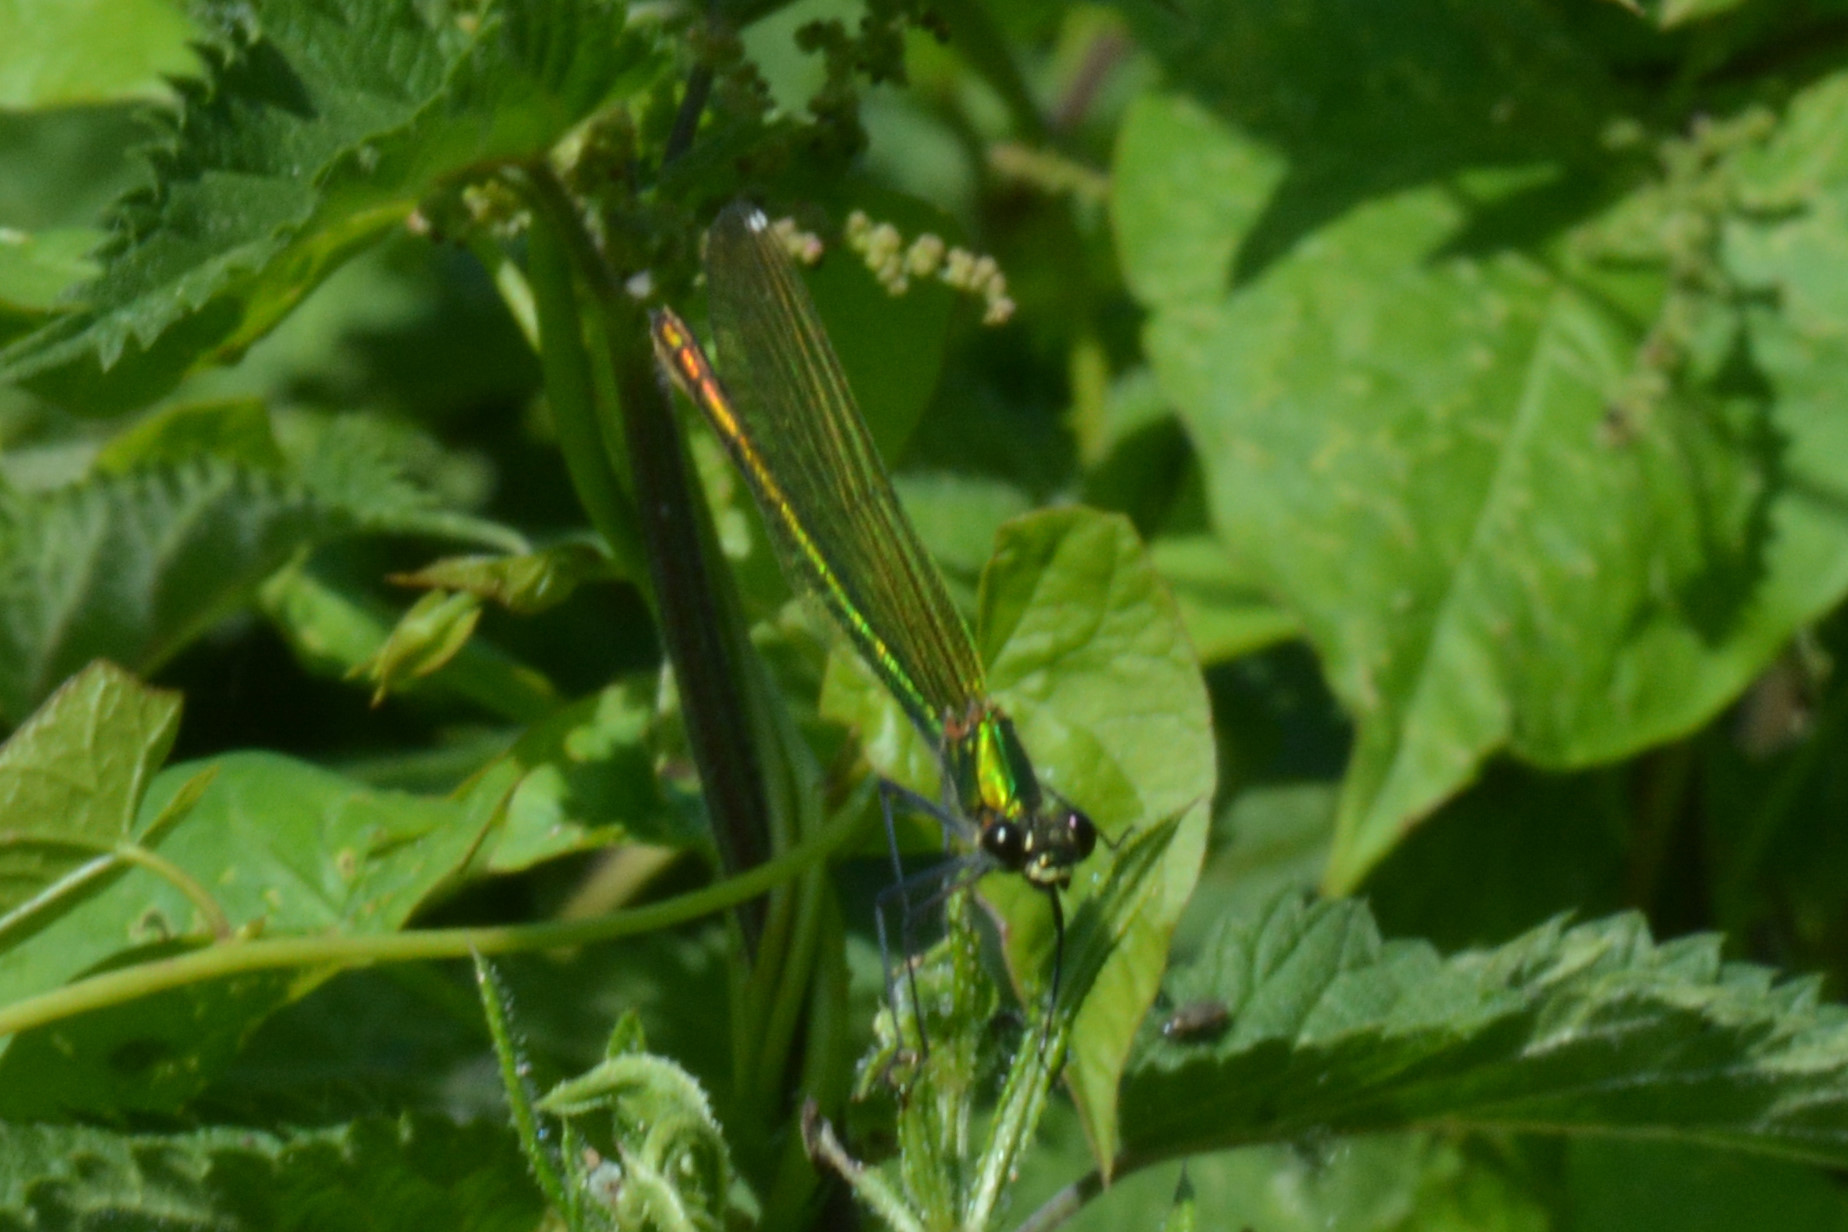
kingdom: Animalia
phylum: Arthropoda
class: Insecta
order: Odonata
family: Calopterygidae
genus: Calopteryx
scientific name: Calopteryx splendens
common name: Banded demoiselle
